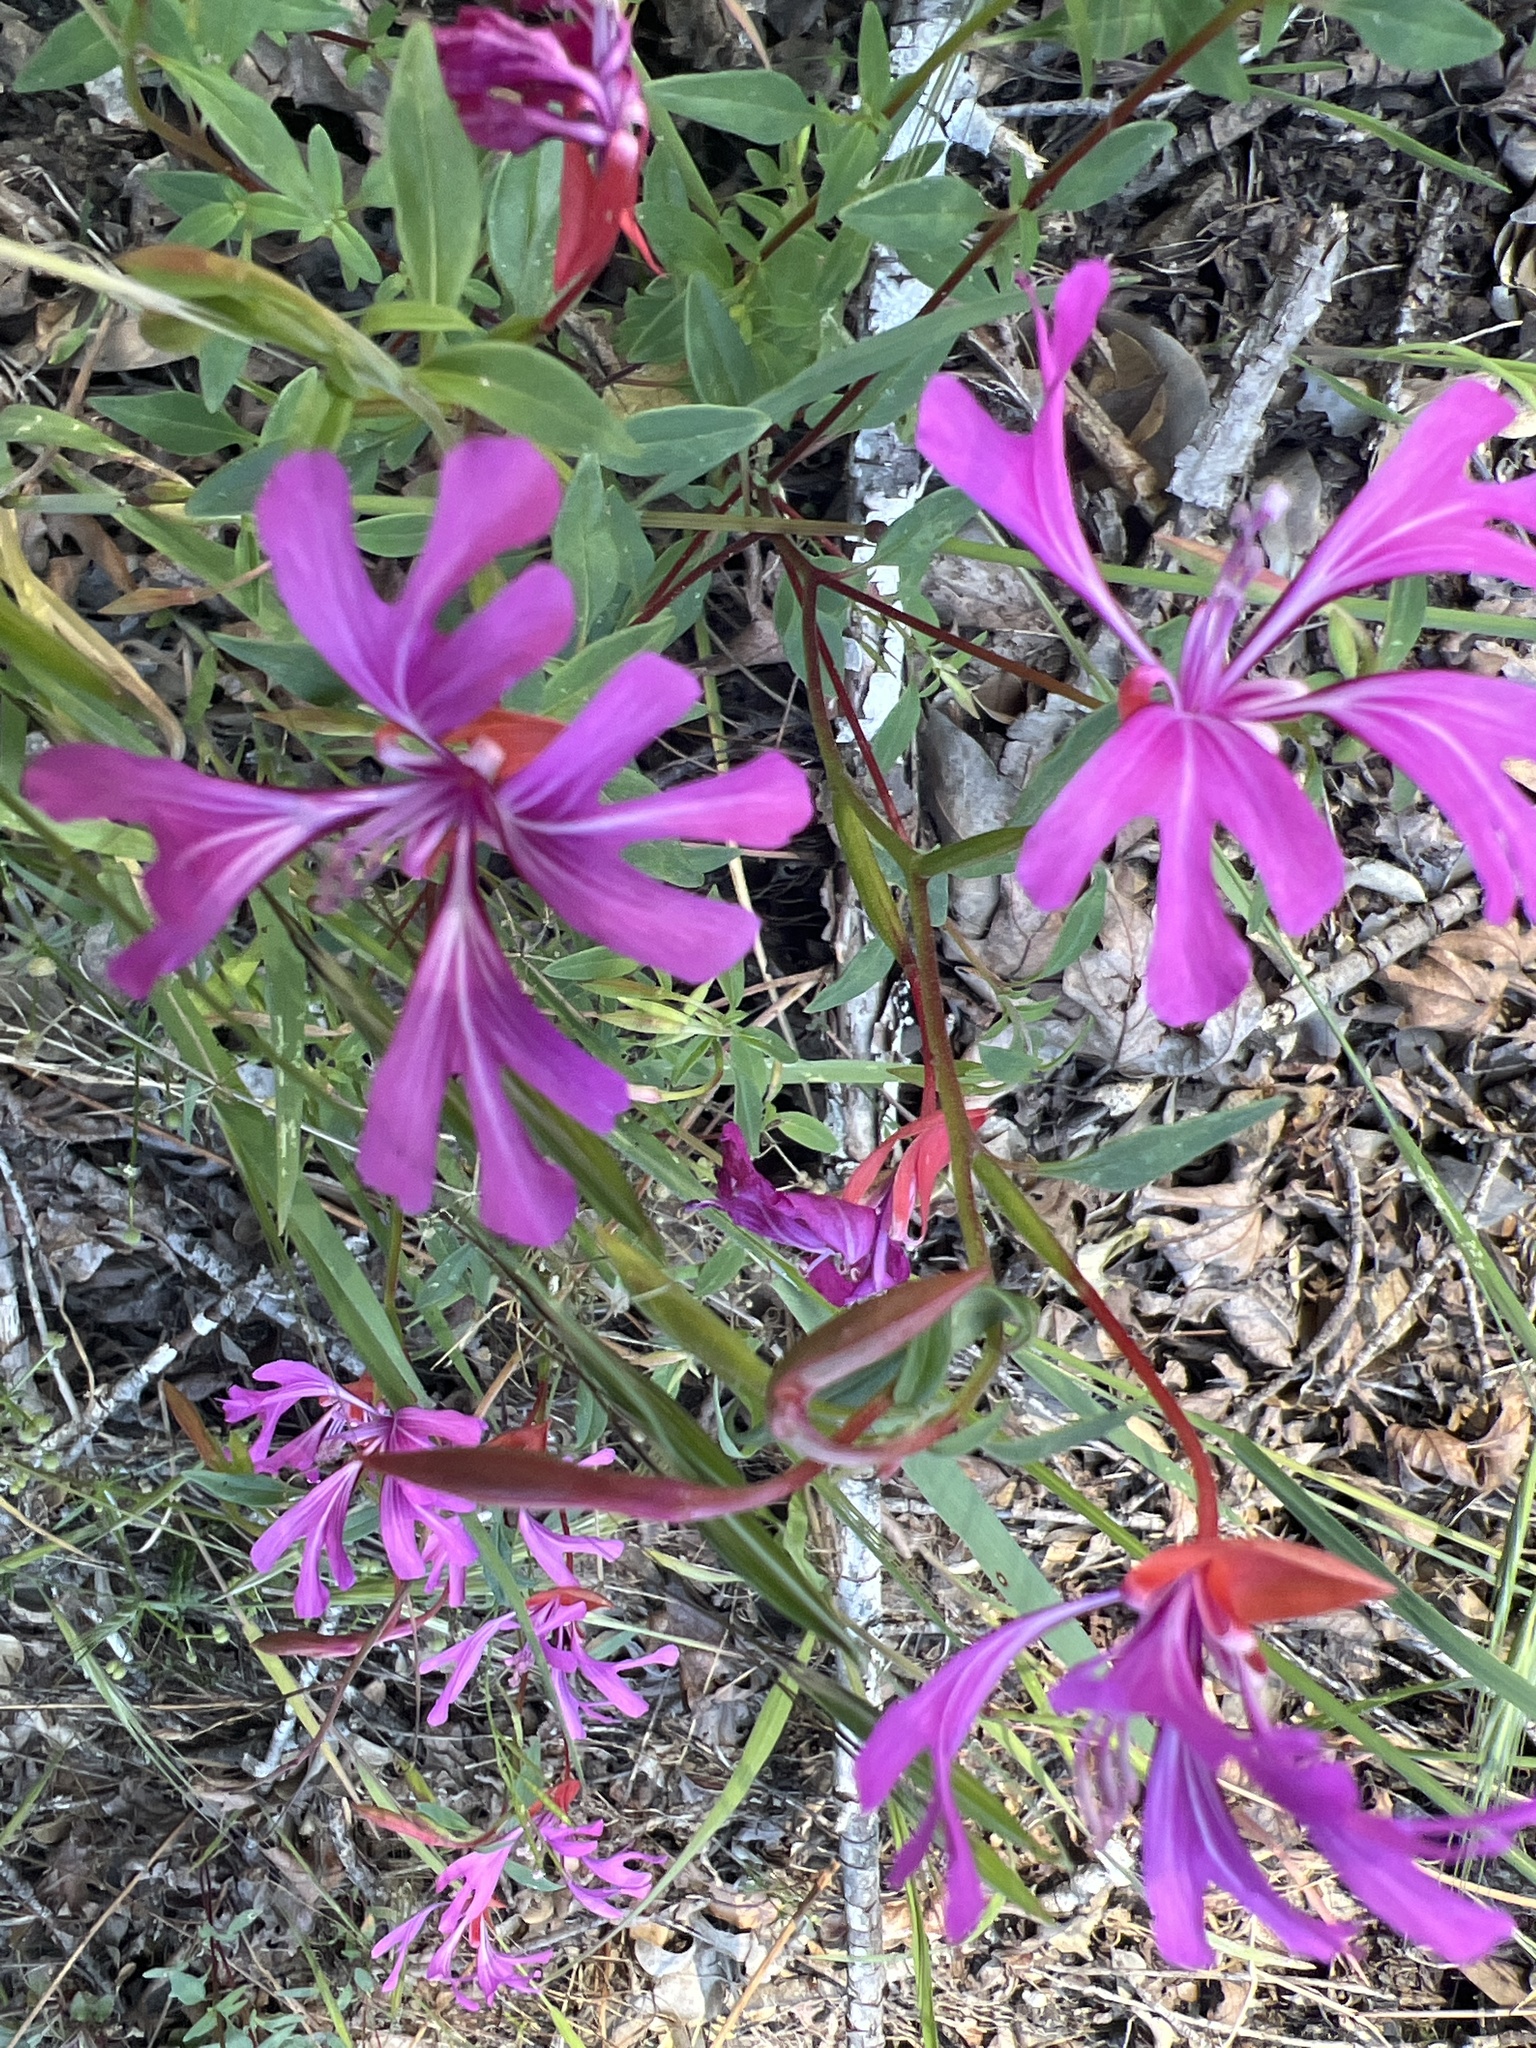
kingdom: Plantae
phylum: Tracheophyta
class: Magnoliopsida
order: Myrtales
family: Onagraceae
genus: Clarkia
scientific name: Clarkia concinna
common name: Red-ribbons
